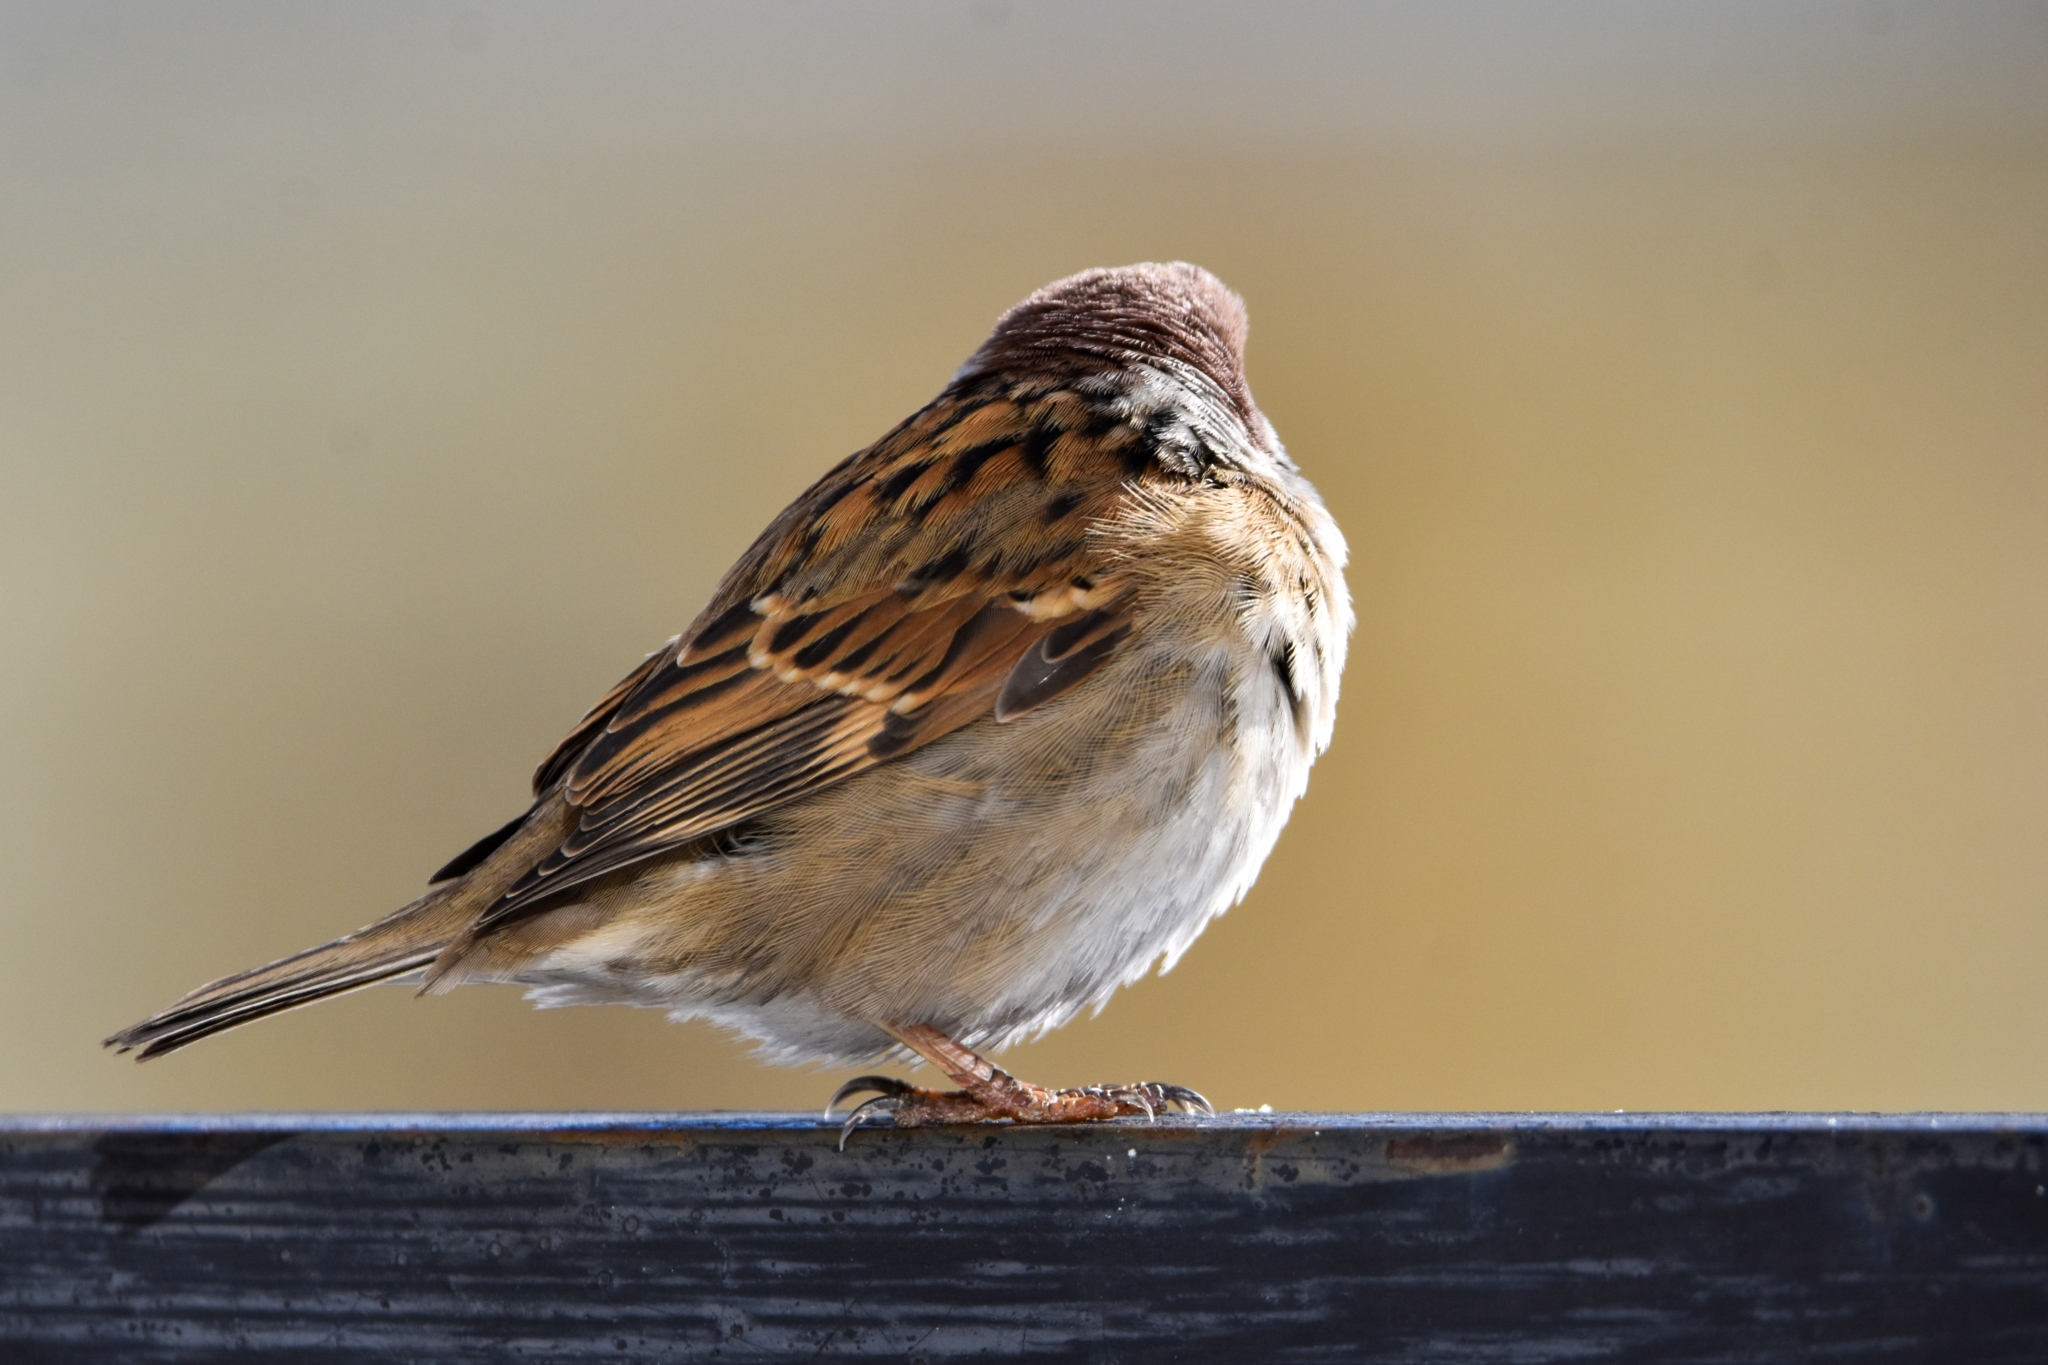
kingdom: Animalia
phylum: Chordata
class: Aves
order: Passeriformes
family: Passeridae
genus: Passer
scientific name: Passer montanus
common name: Eurasian tree sparrow
